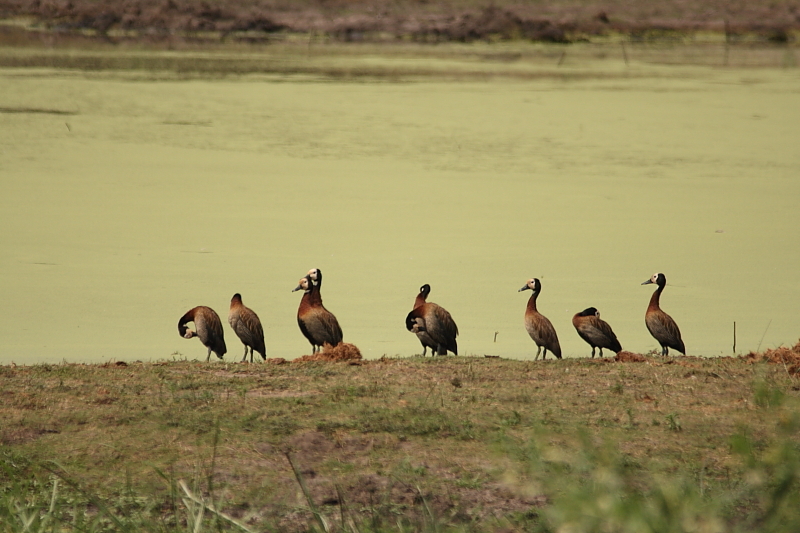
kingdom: Animalia
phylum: Chordata
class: Aves
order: Anseriformes
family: Anatidae
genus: Dendrocygna
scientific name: Dendrocygna viduata
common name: White-faced whistling duck
